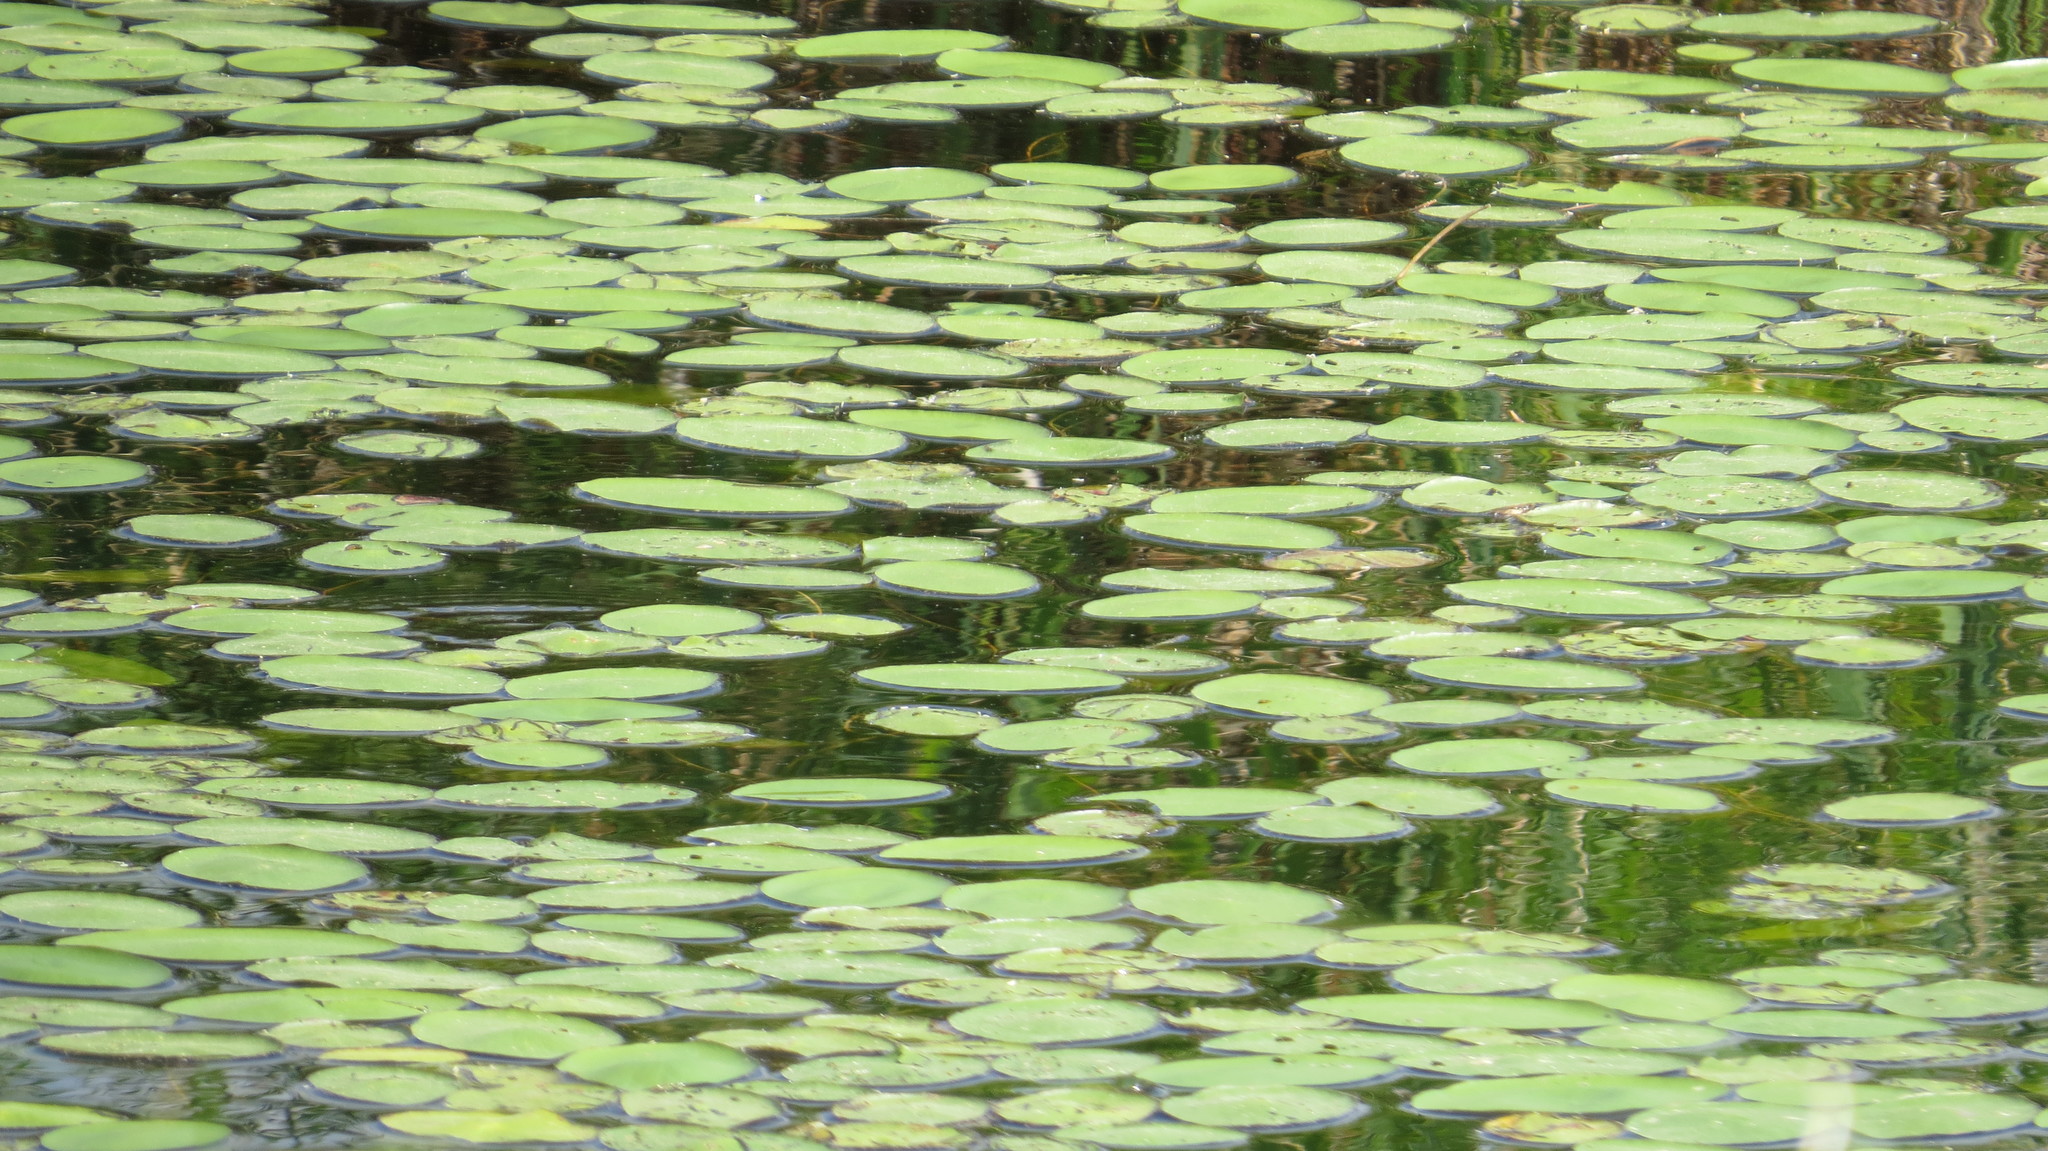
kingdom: Plantae
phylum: Tracheophyta
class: Magnoliopsida
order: Nymphaeales
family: Cabombaceae
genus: Brasenia
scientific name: Brasenia schreberi
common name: Water-shield
